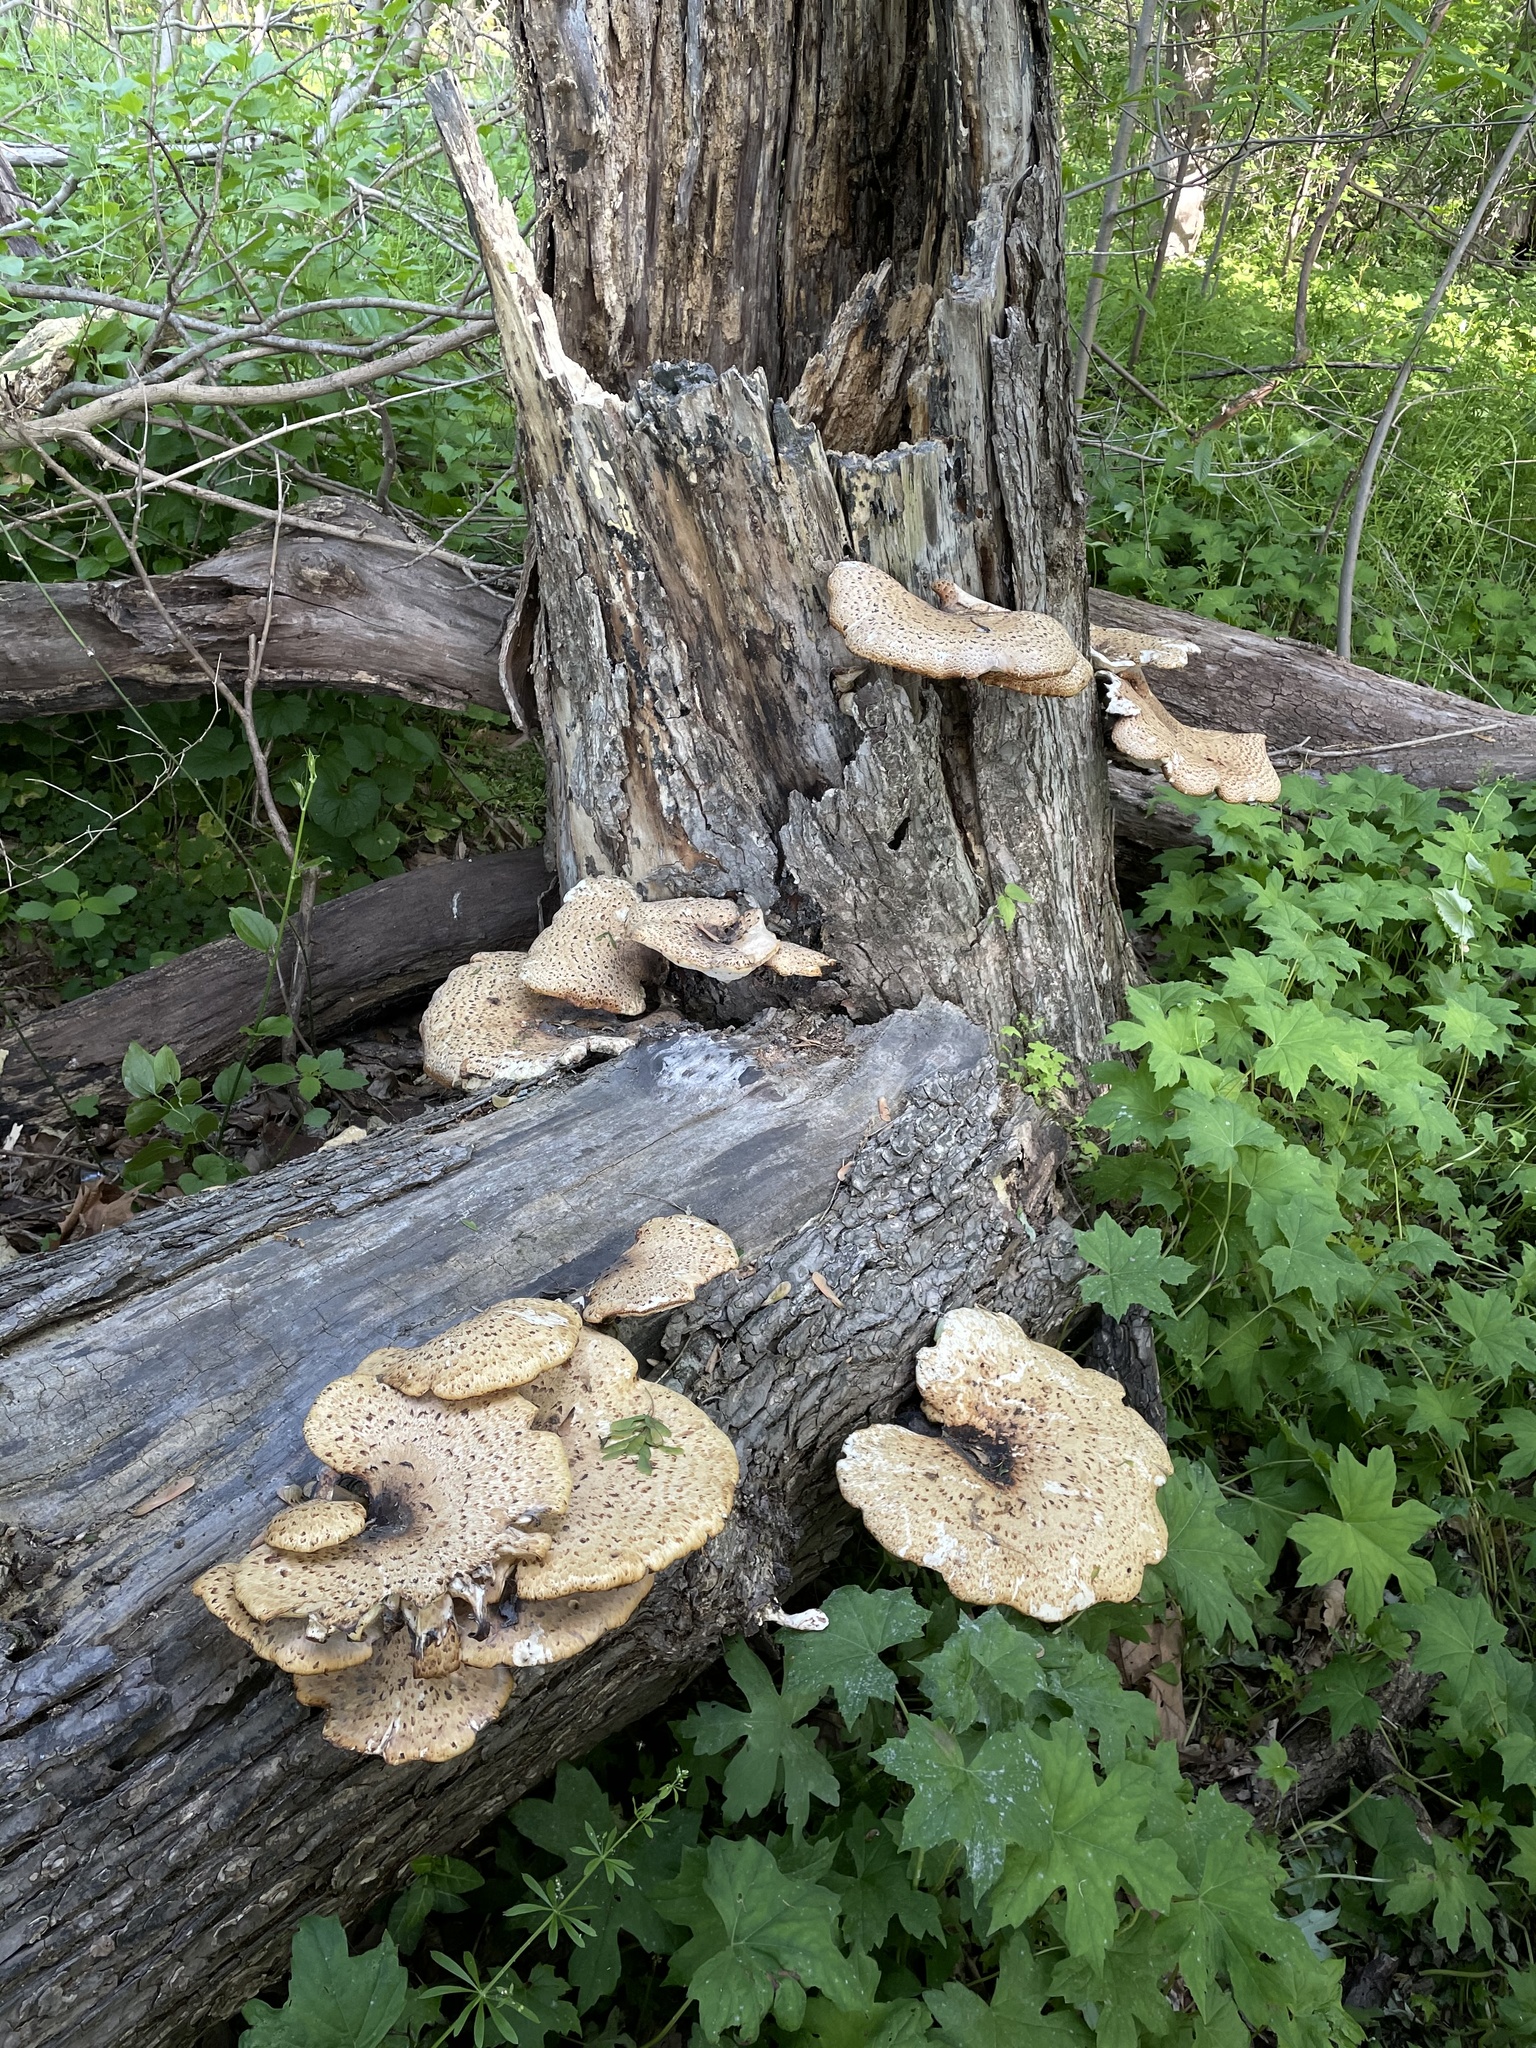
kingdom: Fungi
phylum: Basidiomycota
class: Agaricomycetes
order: Polyporales
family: Polyporaceae
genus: Cerioporus
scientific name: Cerioporus squamosus
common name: Dryad's saddle
